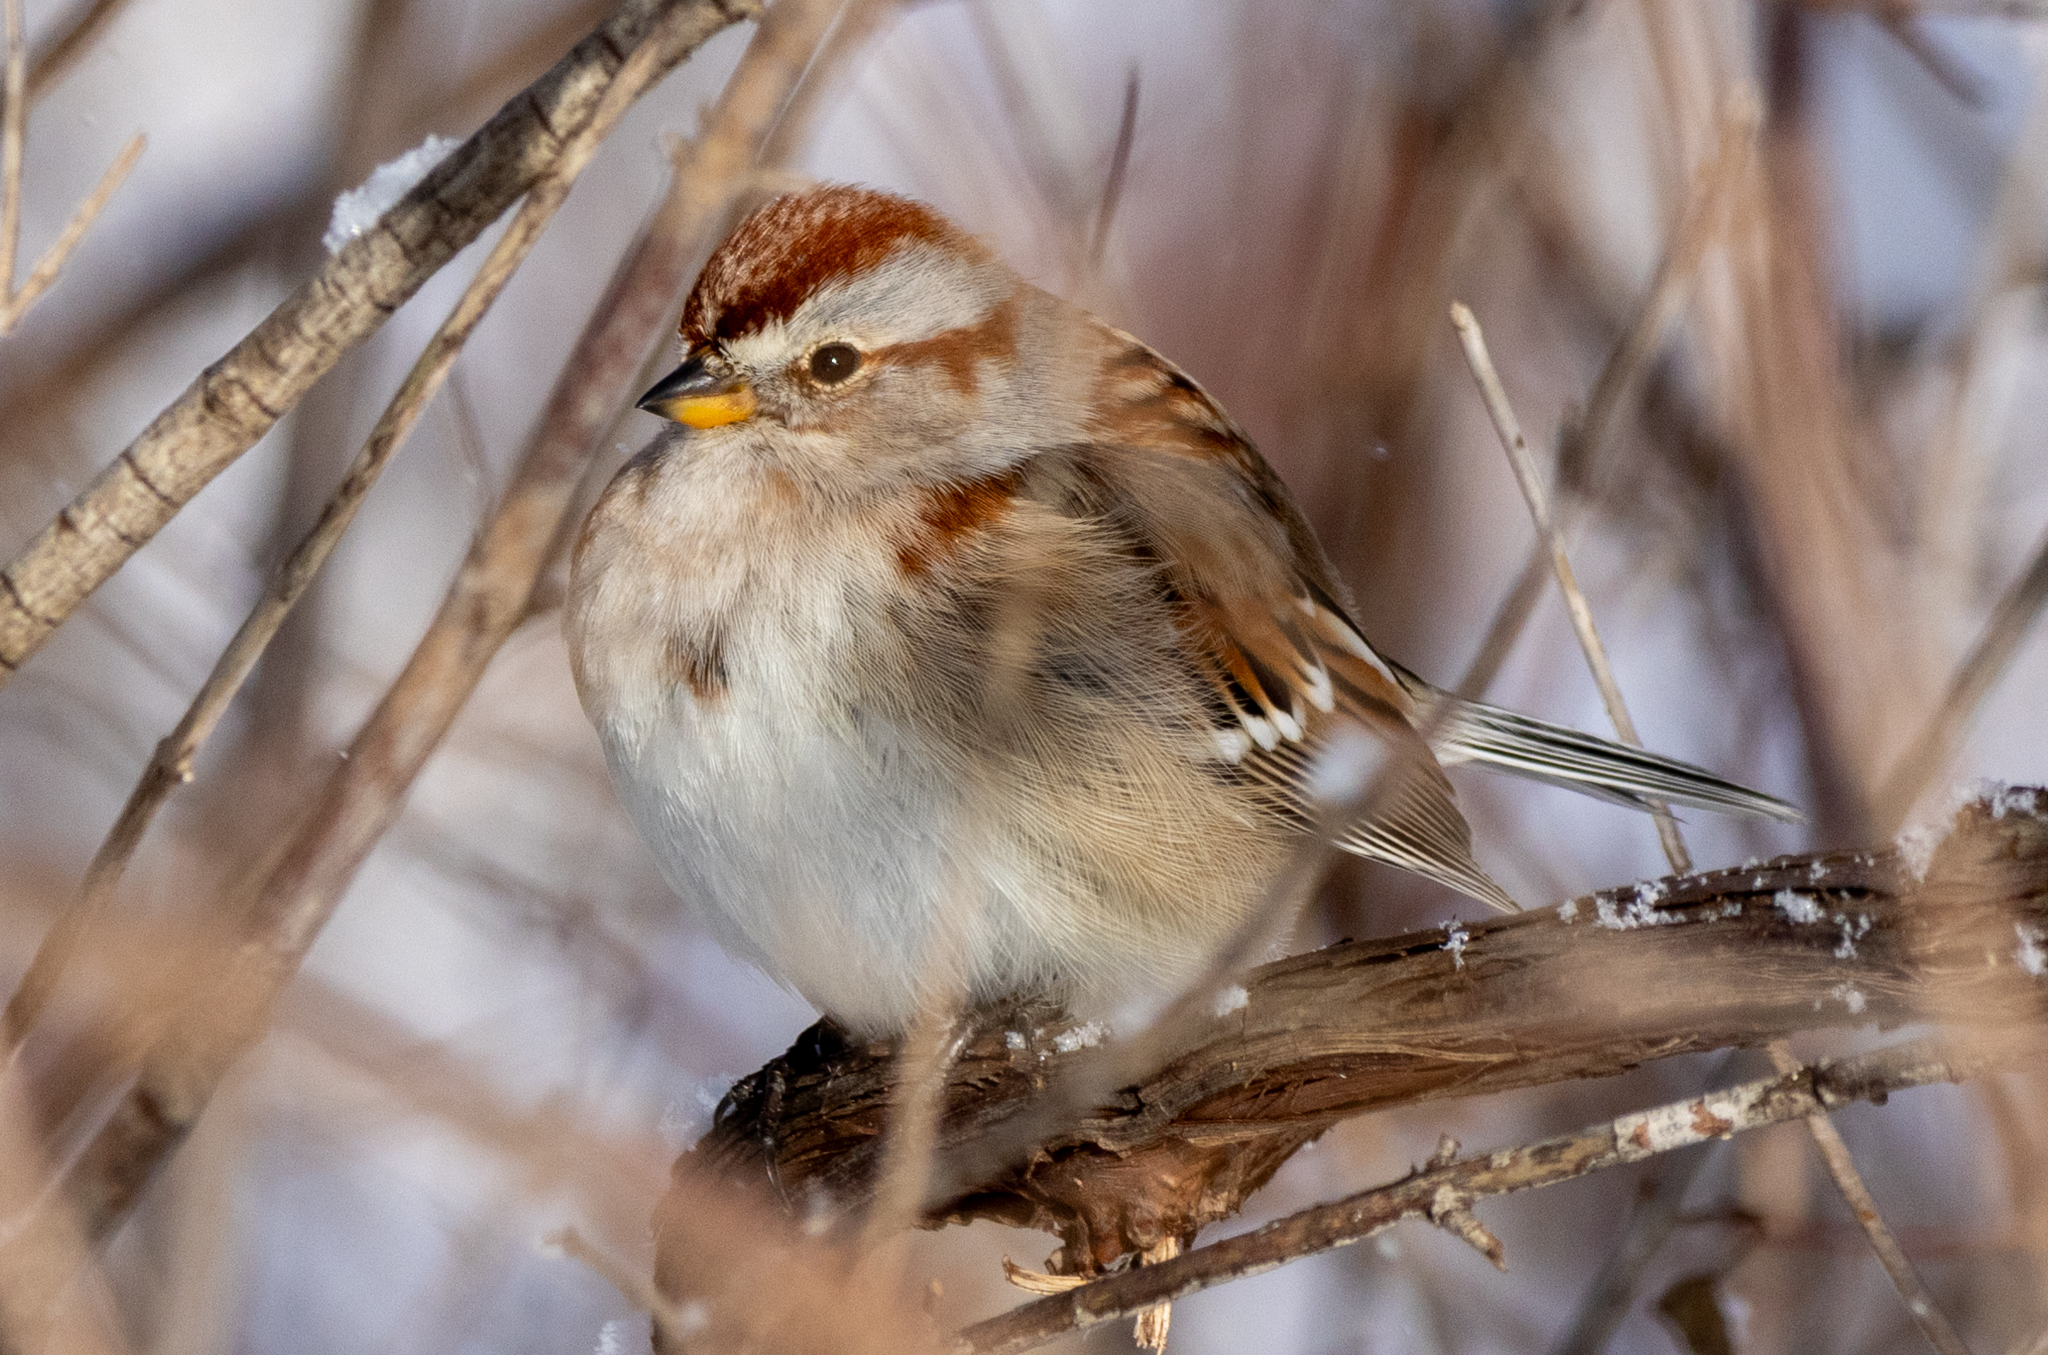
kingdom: Animalia
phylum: Chordata
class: Aves
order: Passeriformes
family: Passerellidae
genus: Spizelloides
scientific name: Spizelloides arborea
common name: American tree sparrow
